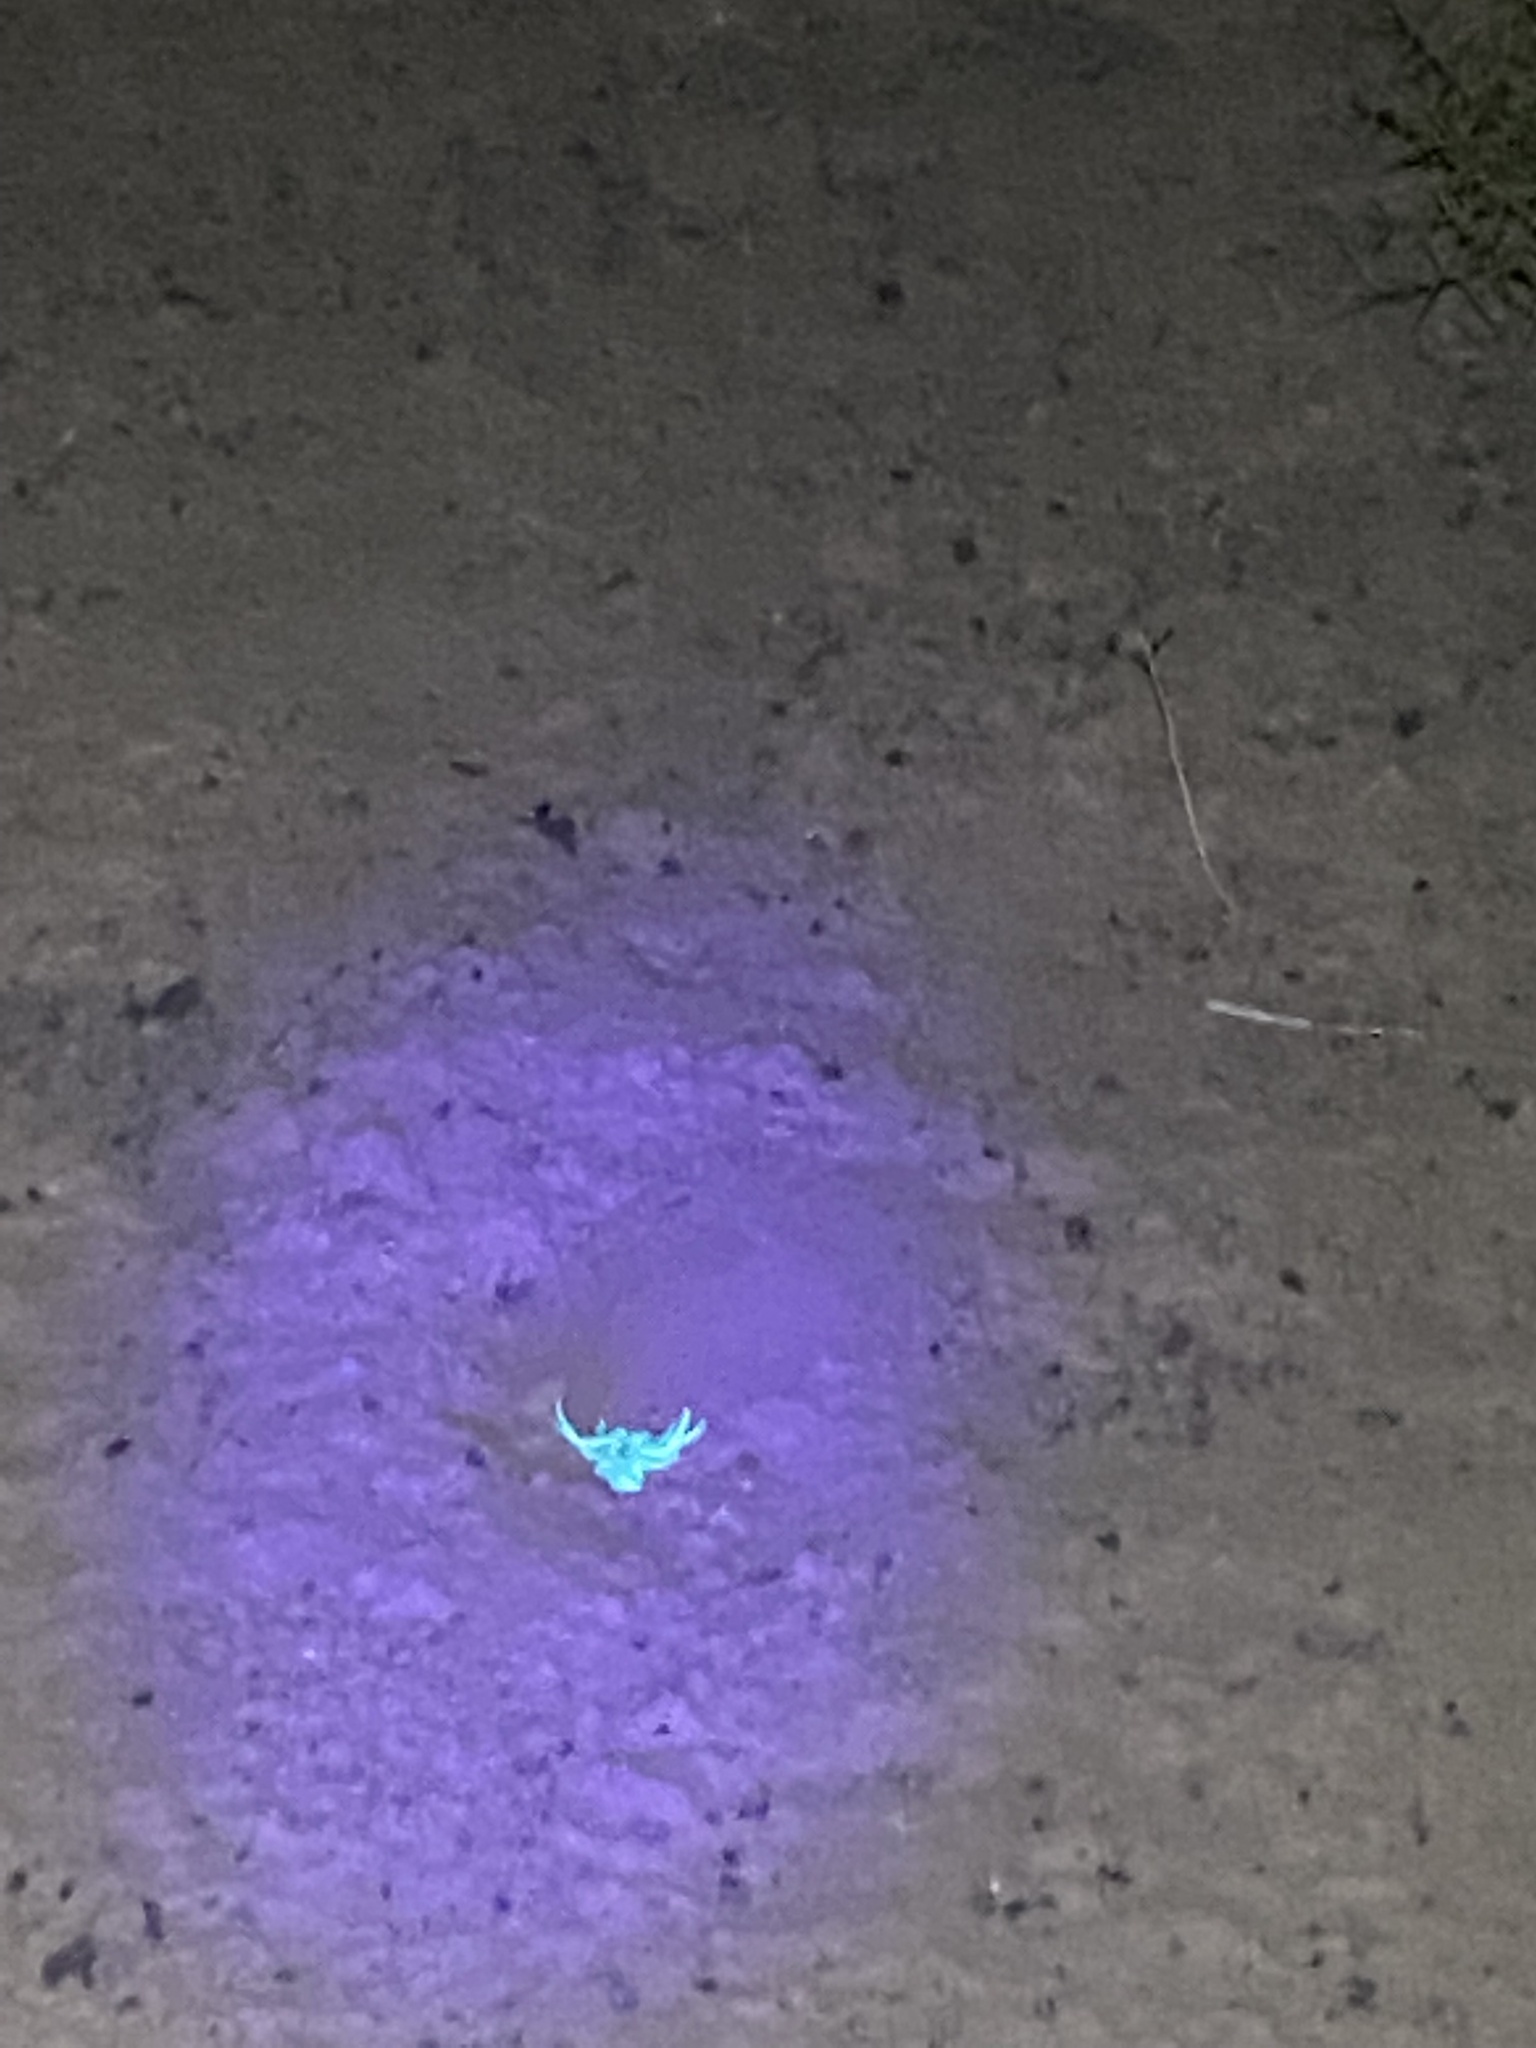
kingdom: Animalia
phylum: Arthropoda
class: Arachnida
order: Scorpiones
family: Buthidae
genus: Odontobuthus
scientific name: Odontobuthus doriae
